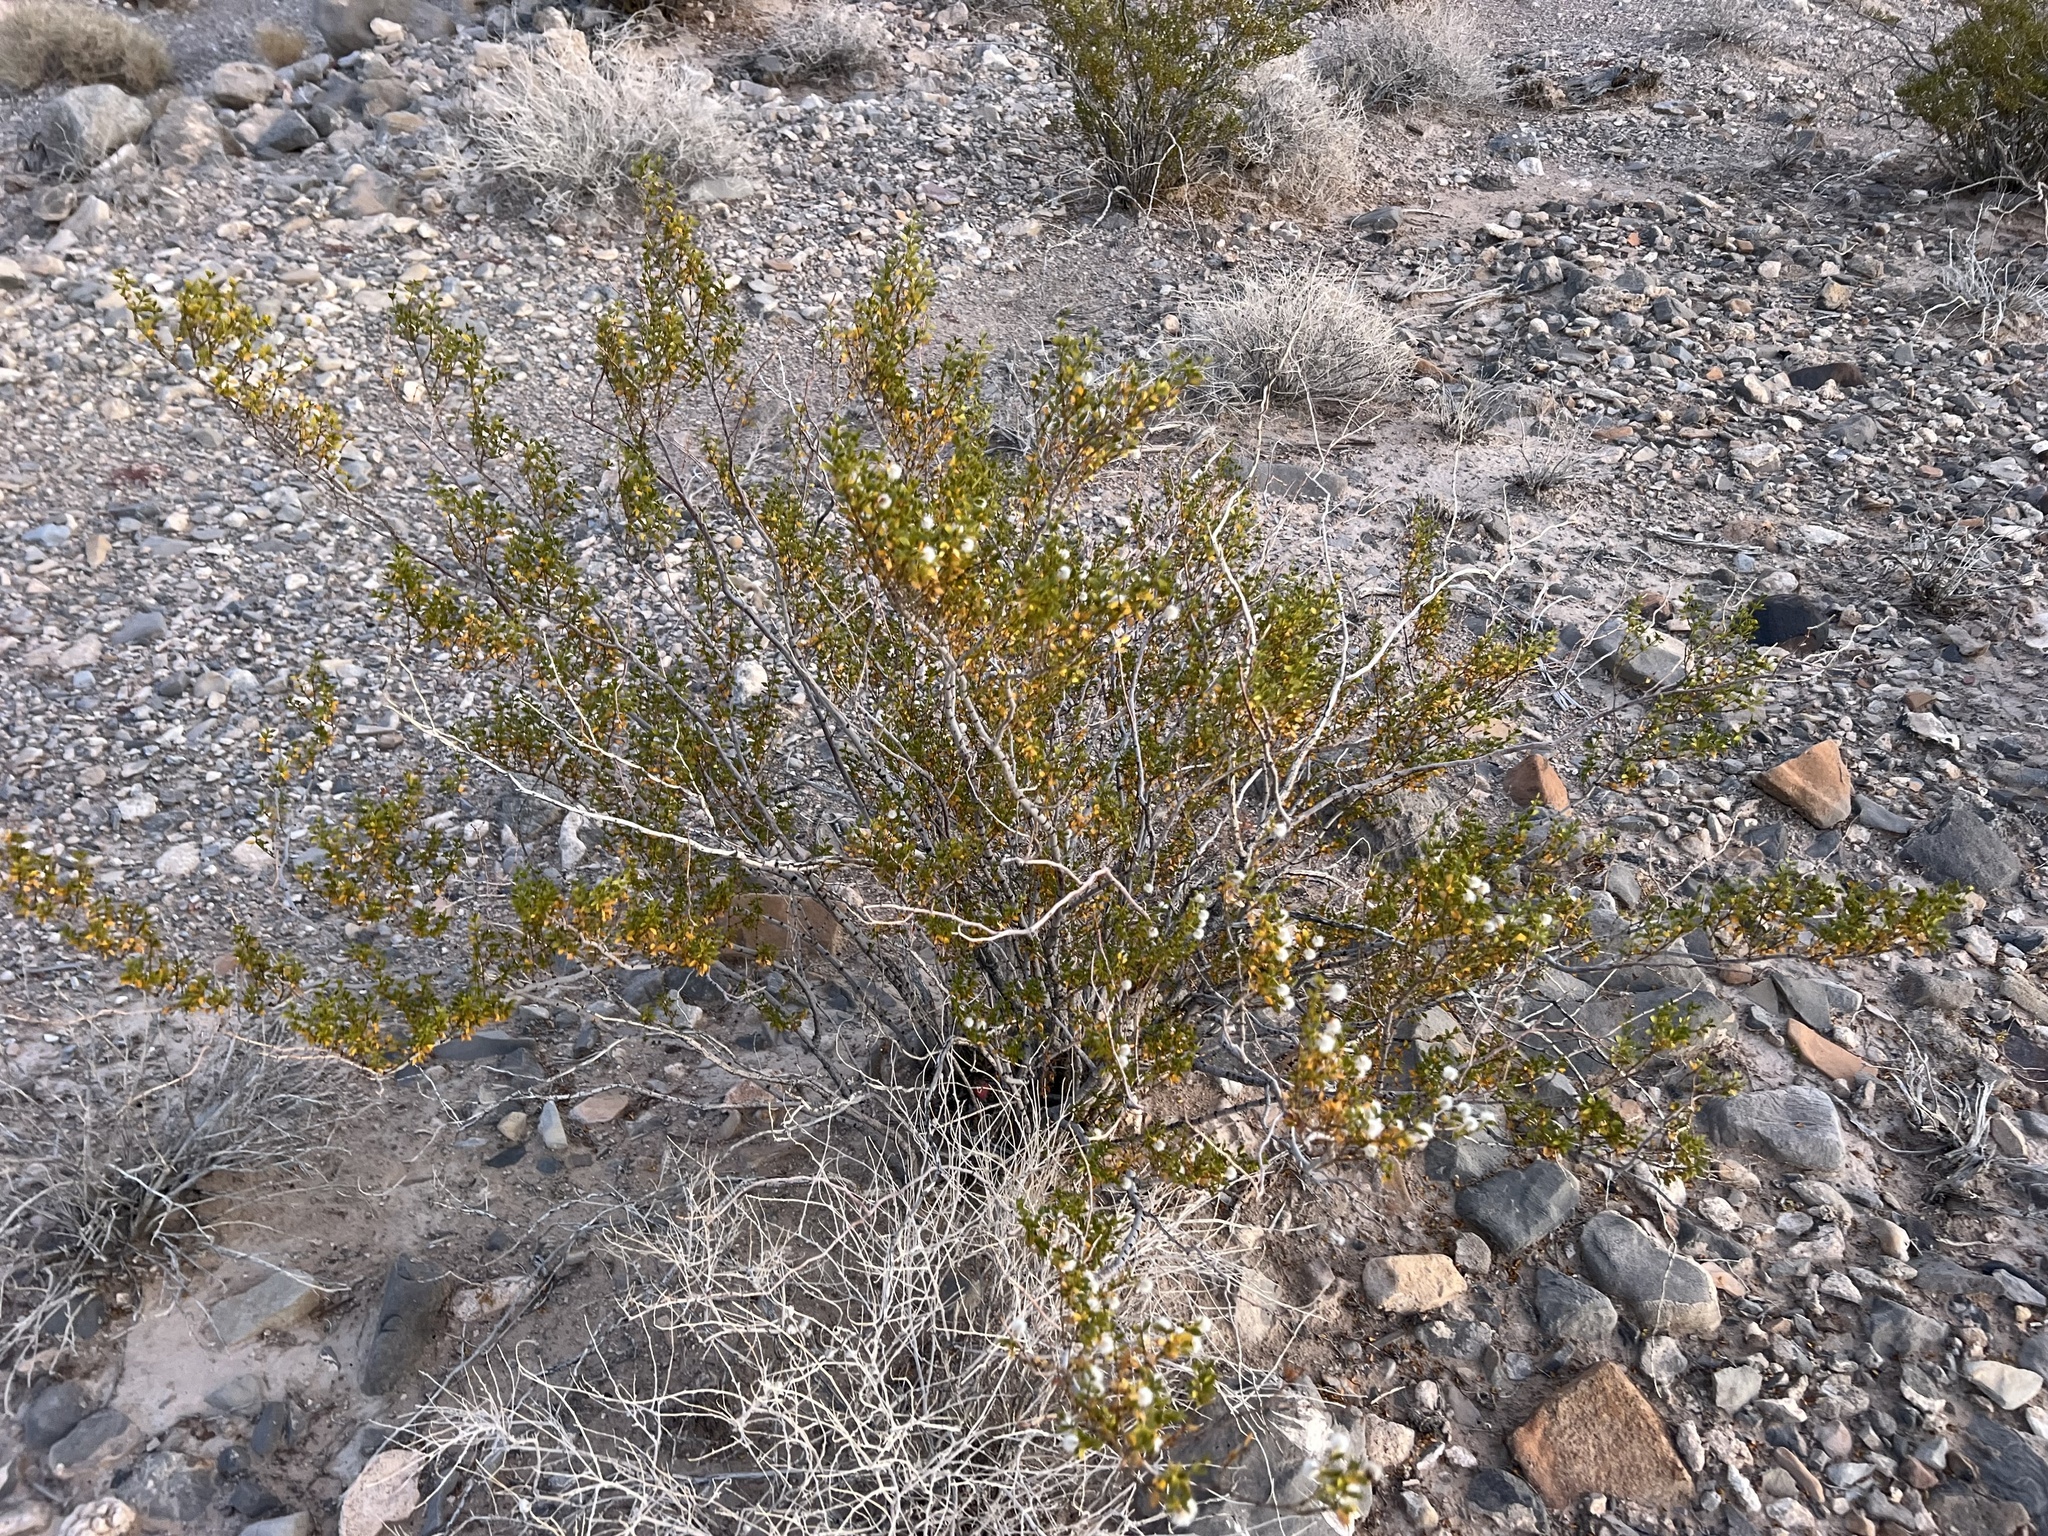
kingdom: Plantae
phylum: Tracheophyta
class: Magnoliopsida
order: Zygophyllales
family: Zygophyllaceae
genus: Larrea
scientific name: Larrea tridentata
